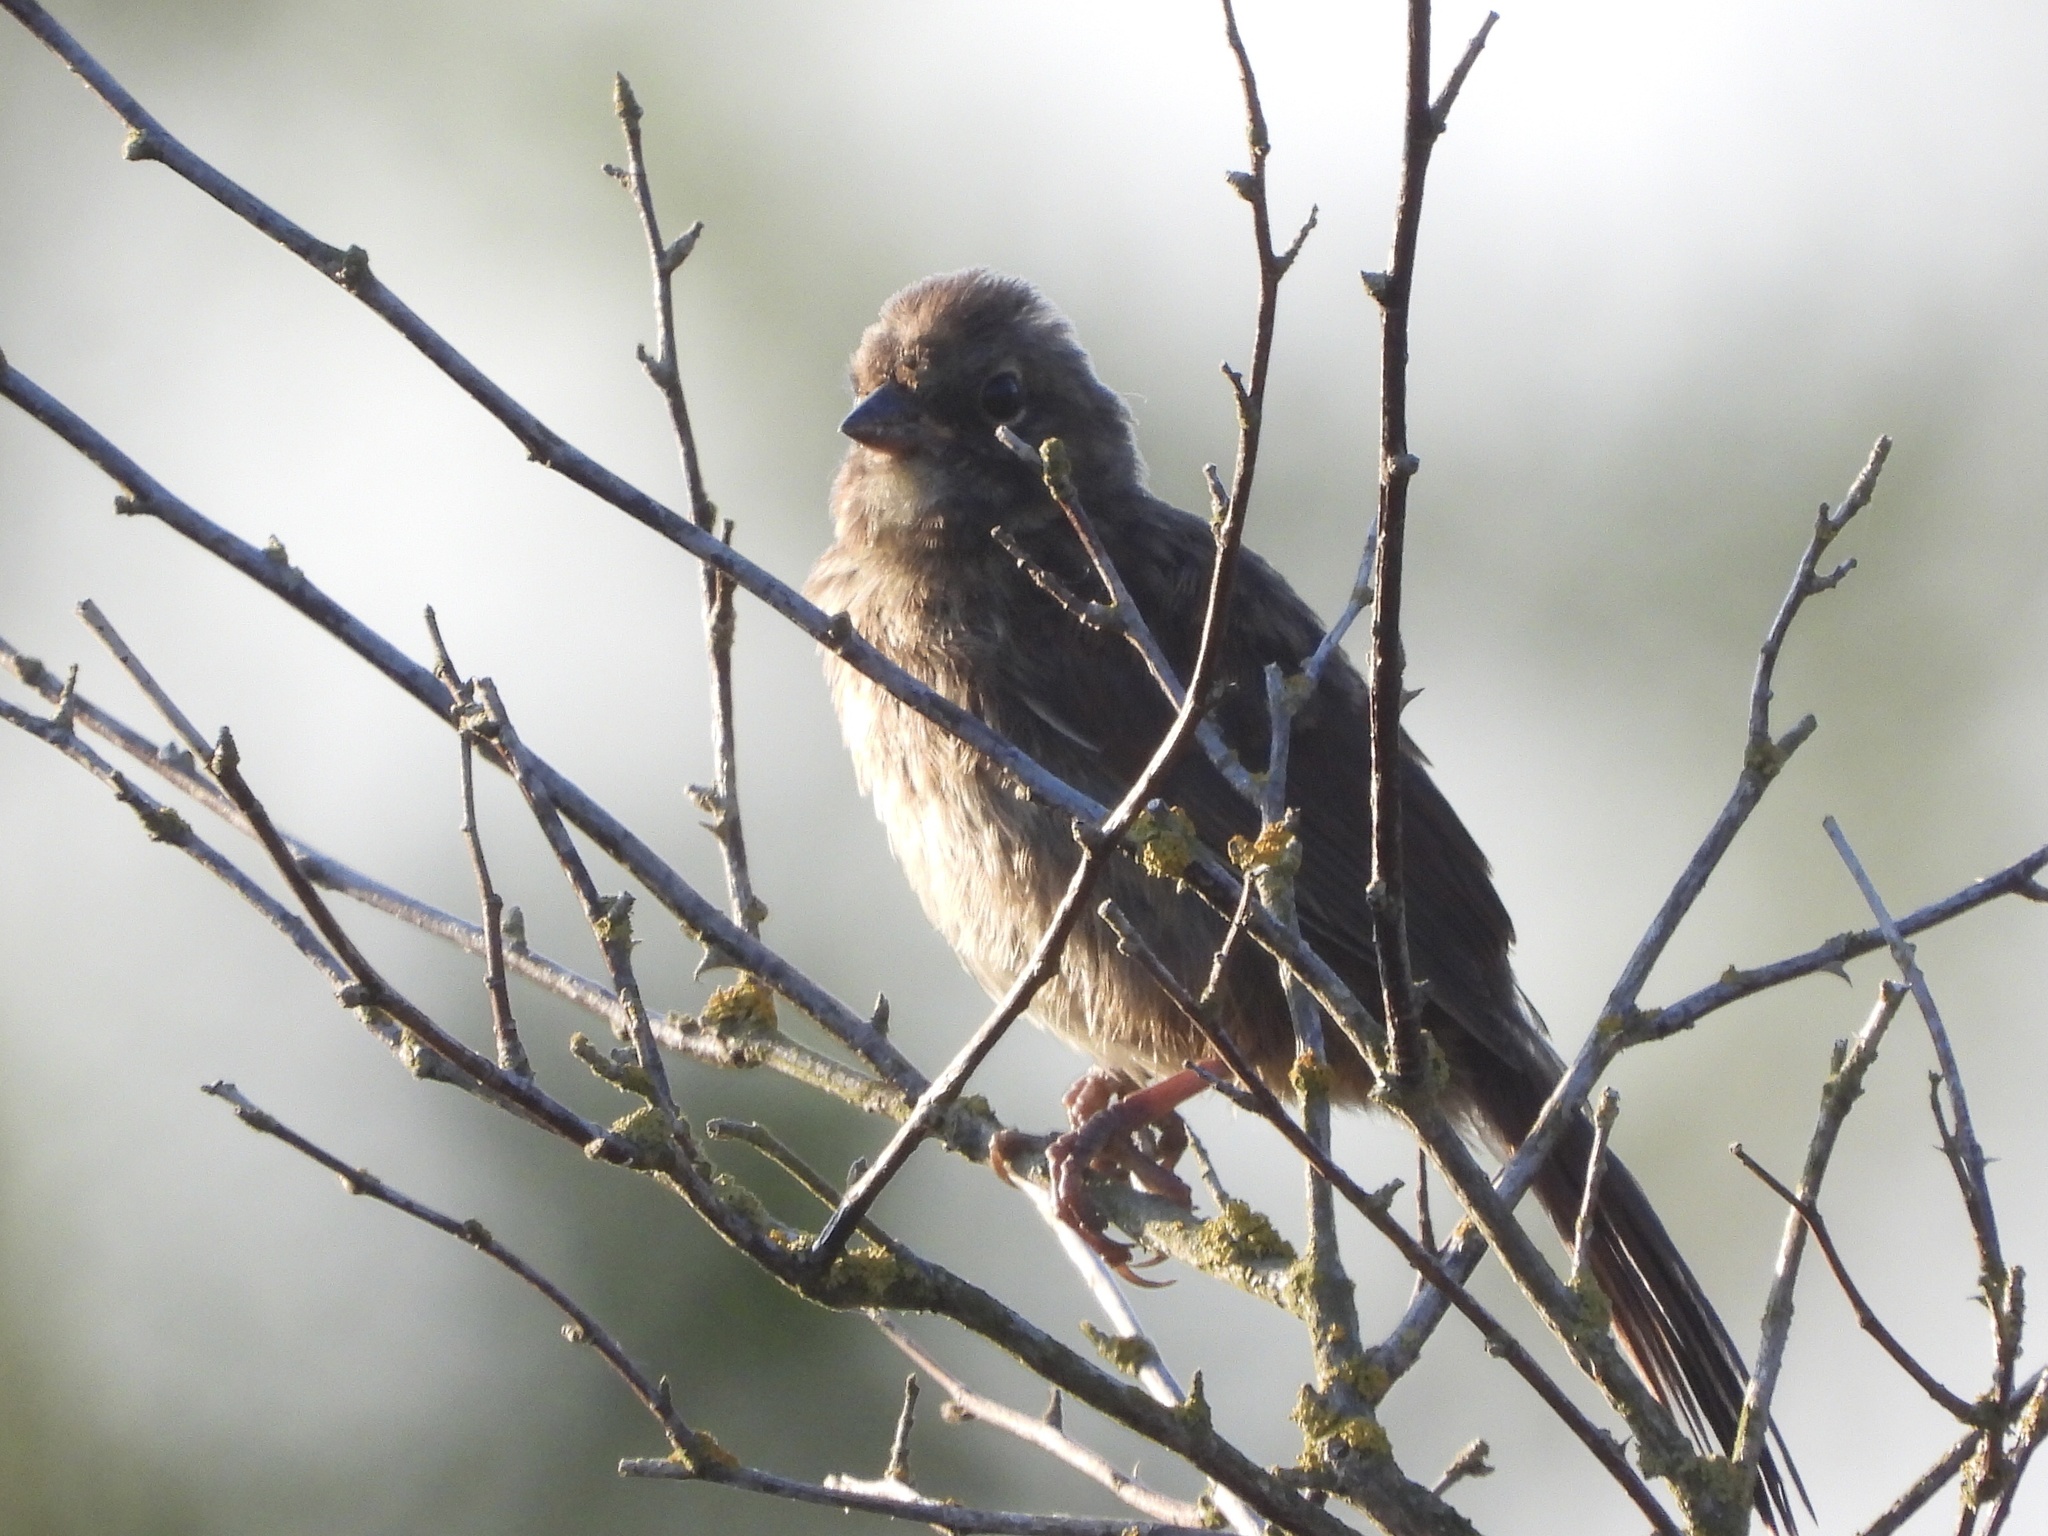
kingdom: Animalia
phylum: Chordata
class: Aves
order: Passeriformes
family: Passerellidae
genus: Melospiza
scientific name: Melospiza melodia
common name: Song sparrow
